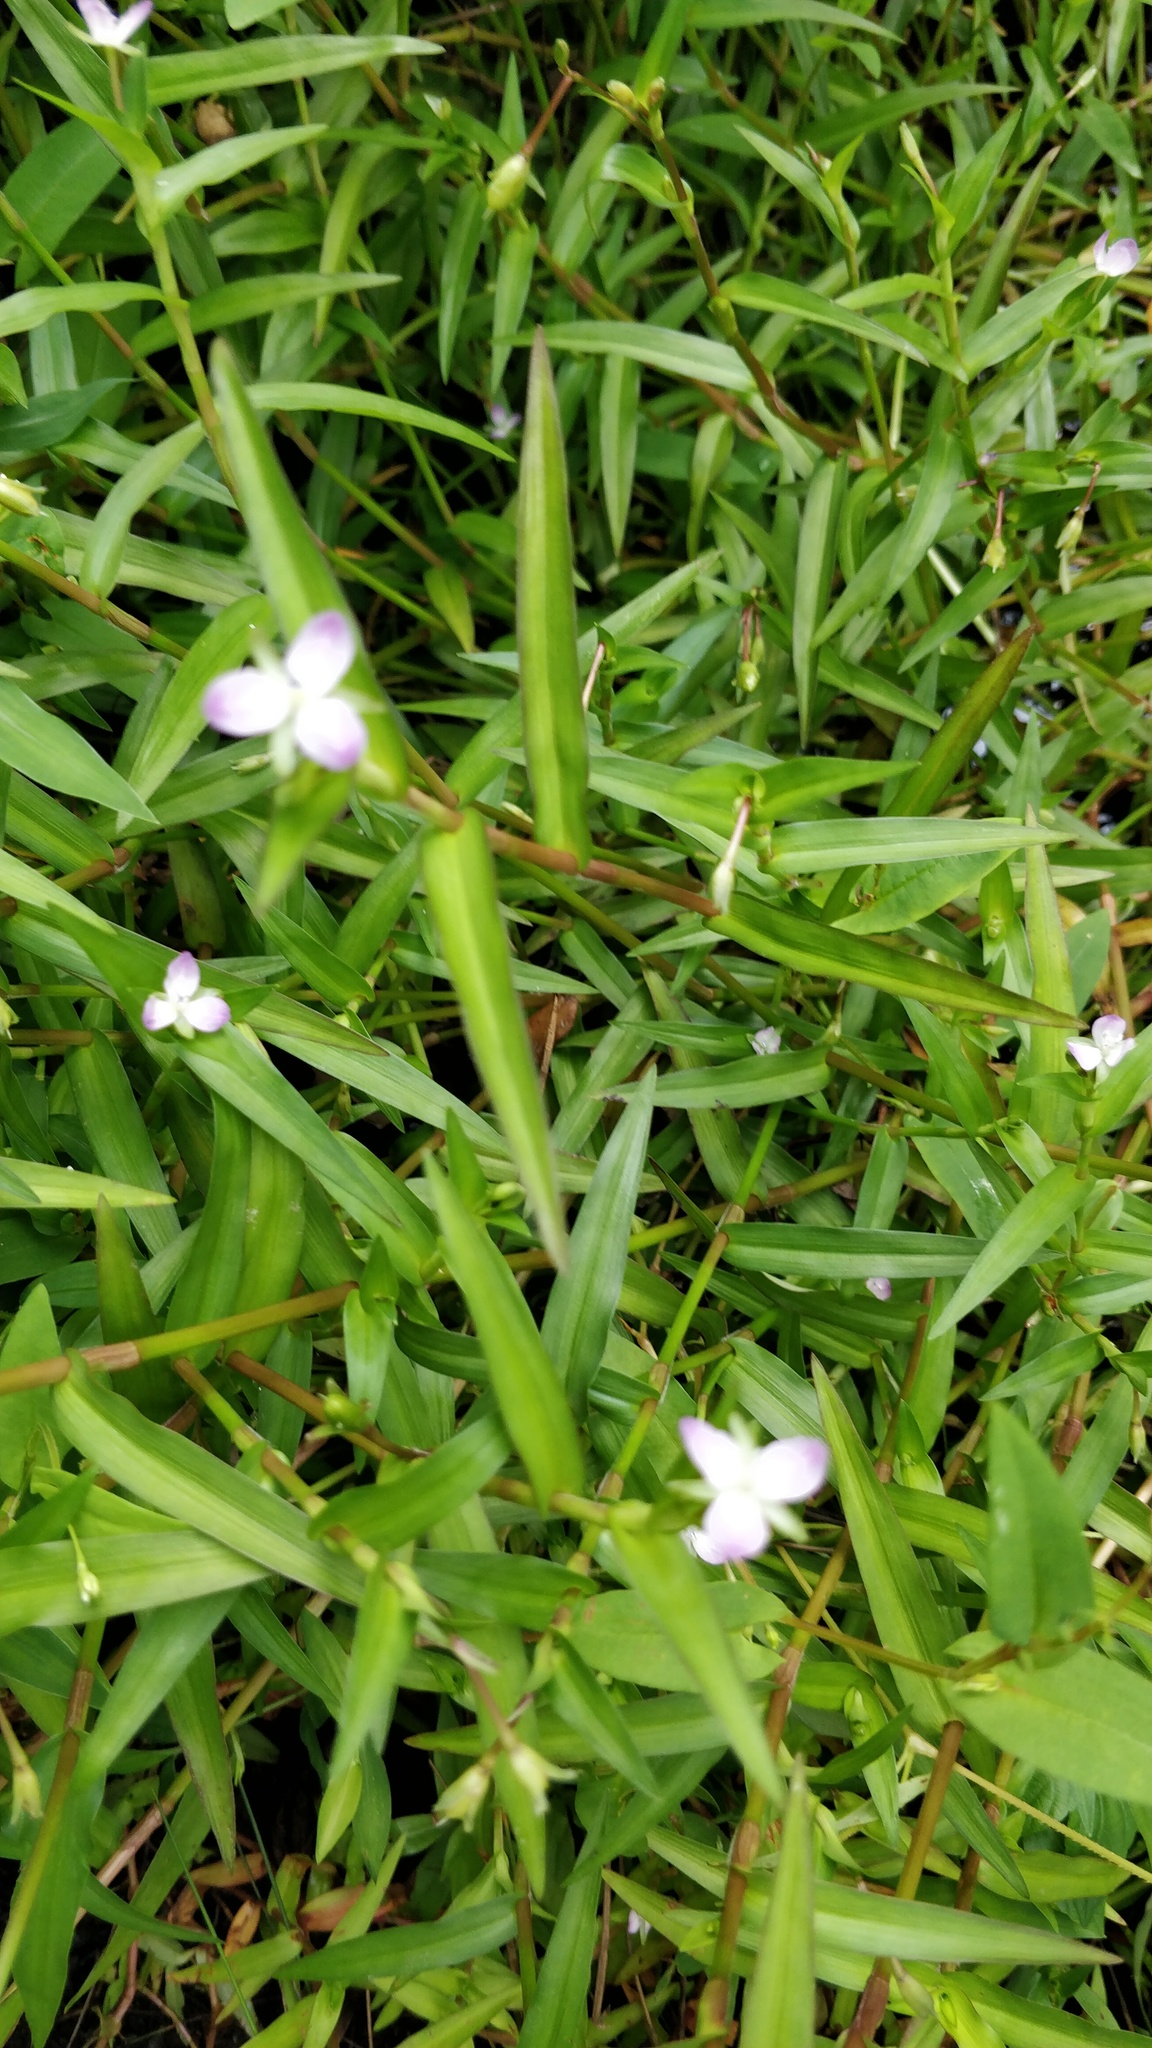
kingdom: Plantae
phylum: Tracheophyta
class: Liliopsida
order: Commelinales
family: Commelinaceae
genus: Murdannia
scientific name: Murdannia keisak
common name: Wartremoving herb
